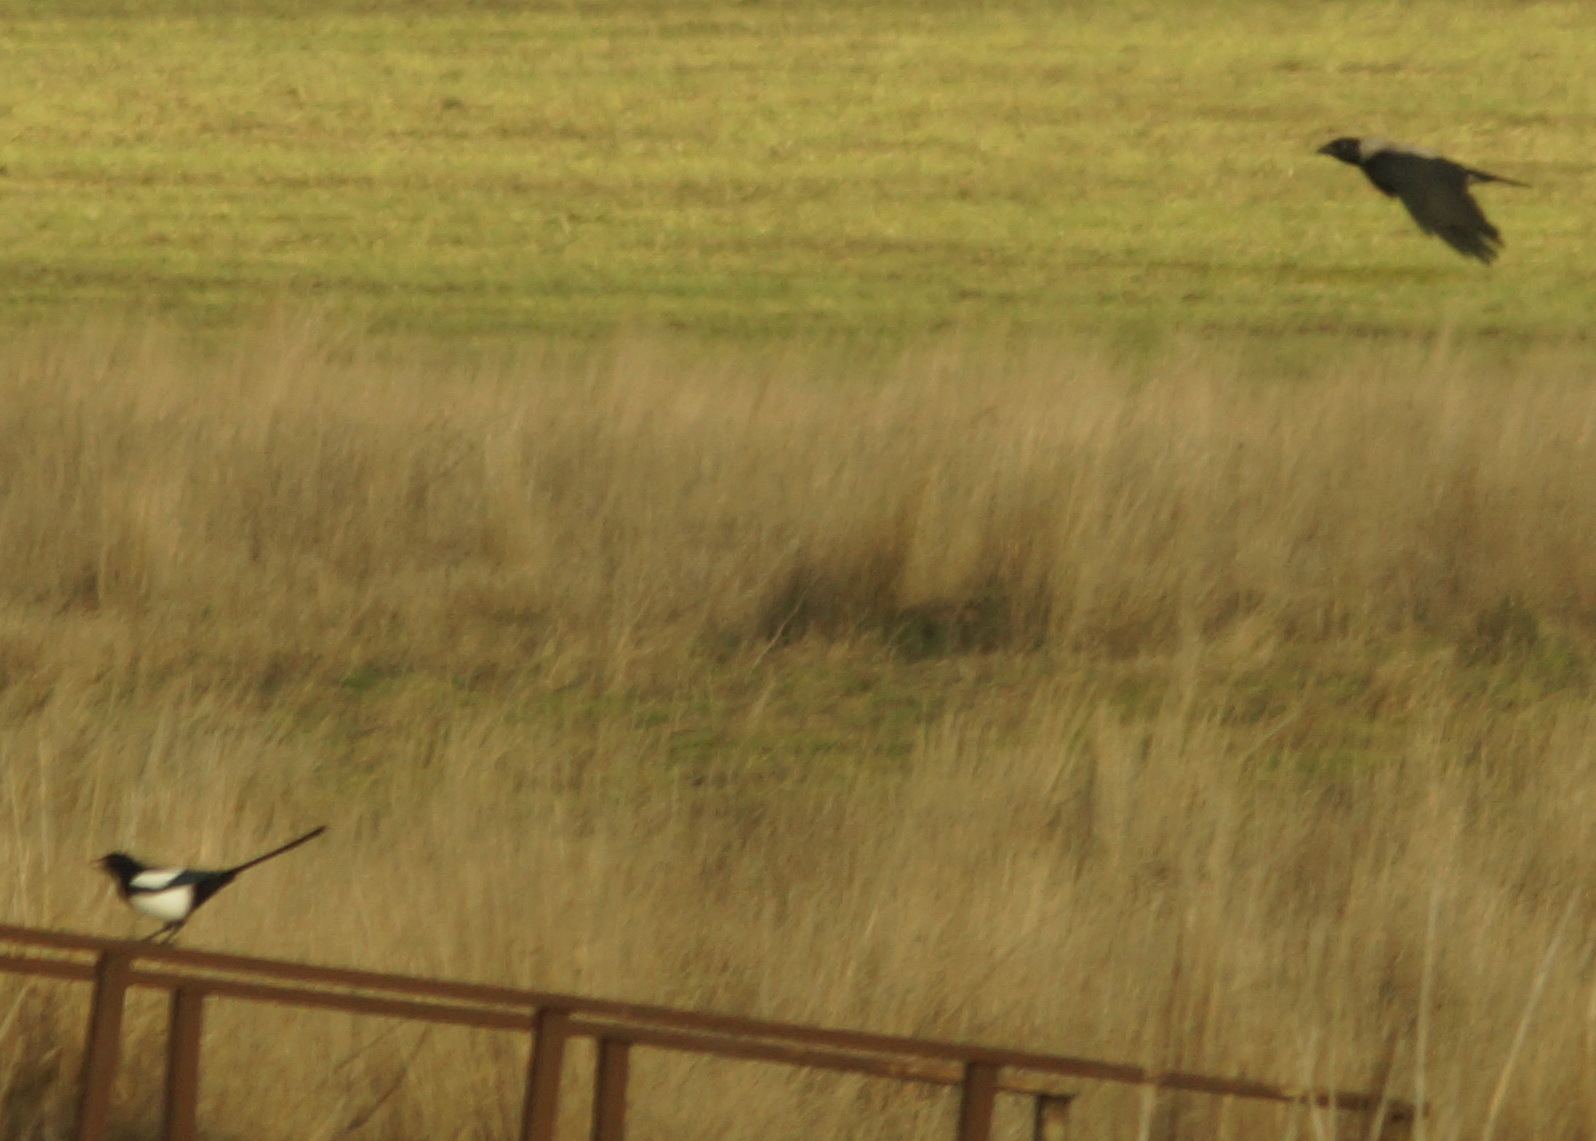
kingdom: Animalia
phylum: Chordata
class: Aves
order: Passeriformes
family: Corvidae
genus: Pica
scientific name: Pica pica
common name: Eurasian magpie
